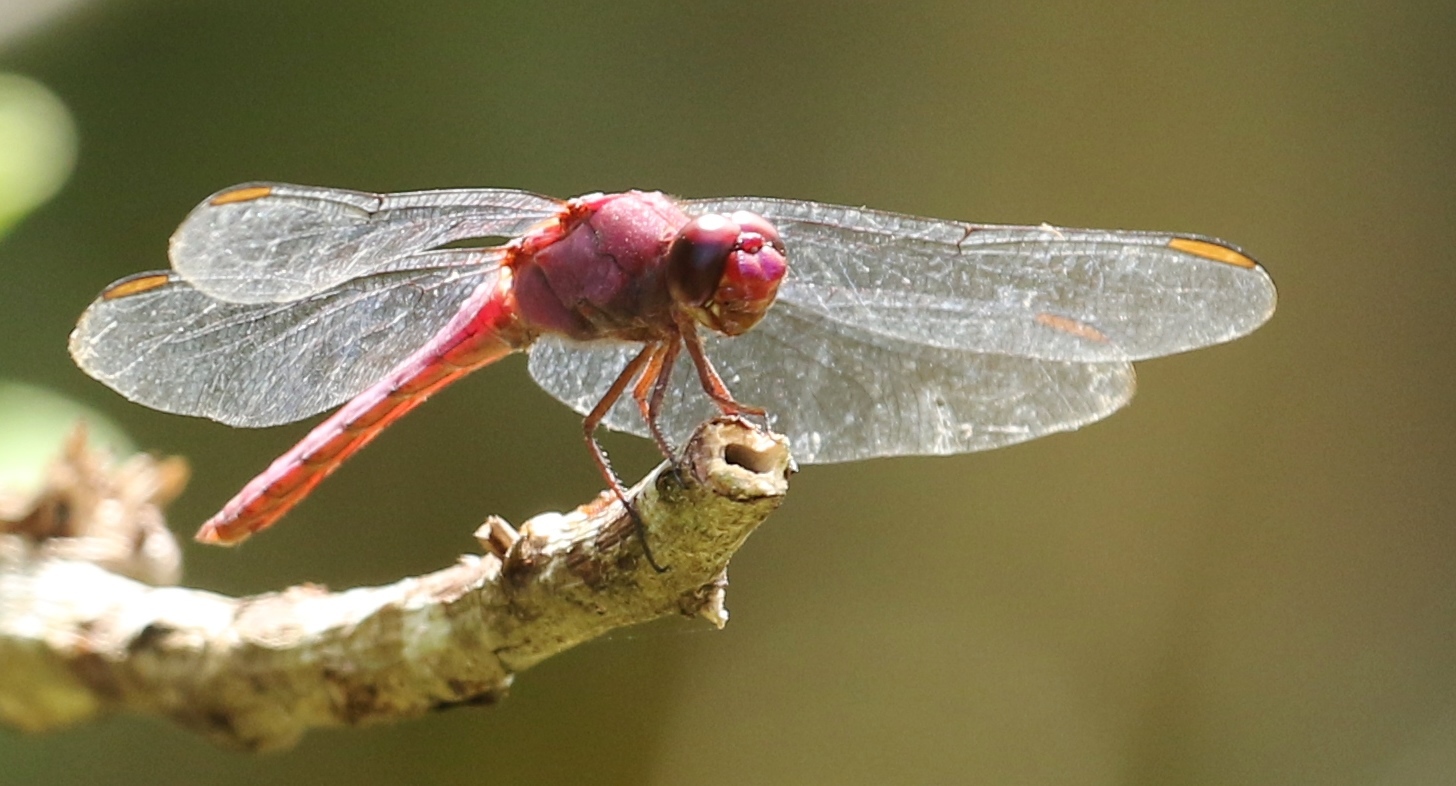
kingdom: Animalia
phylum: Arthropoda
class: Insecta
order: Odonata
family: Libellulidae
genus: Orthemis
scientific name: Orthemis discolor
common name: Carmine skimmer
